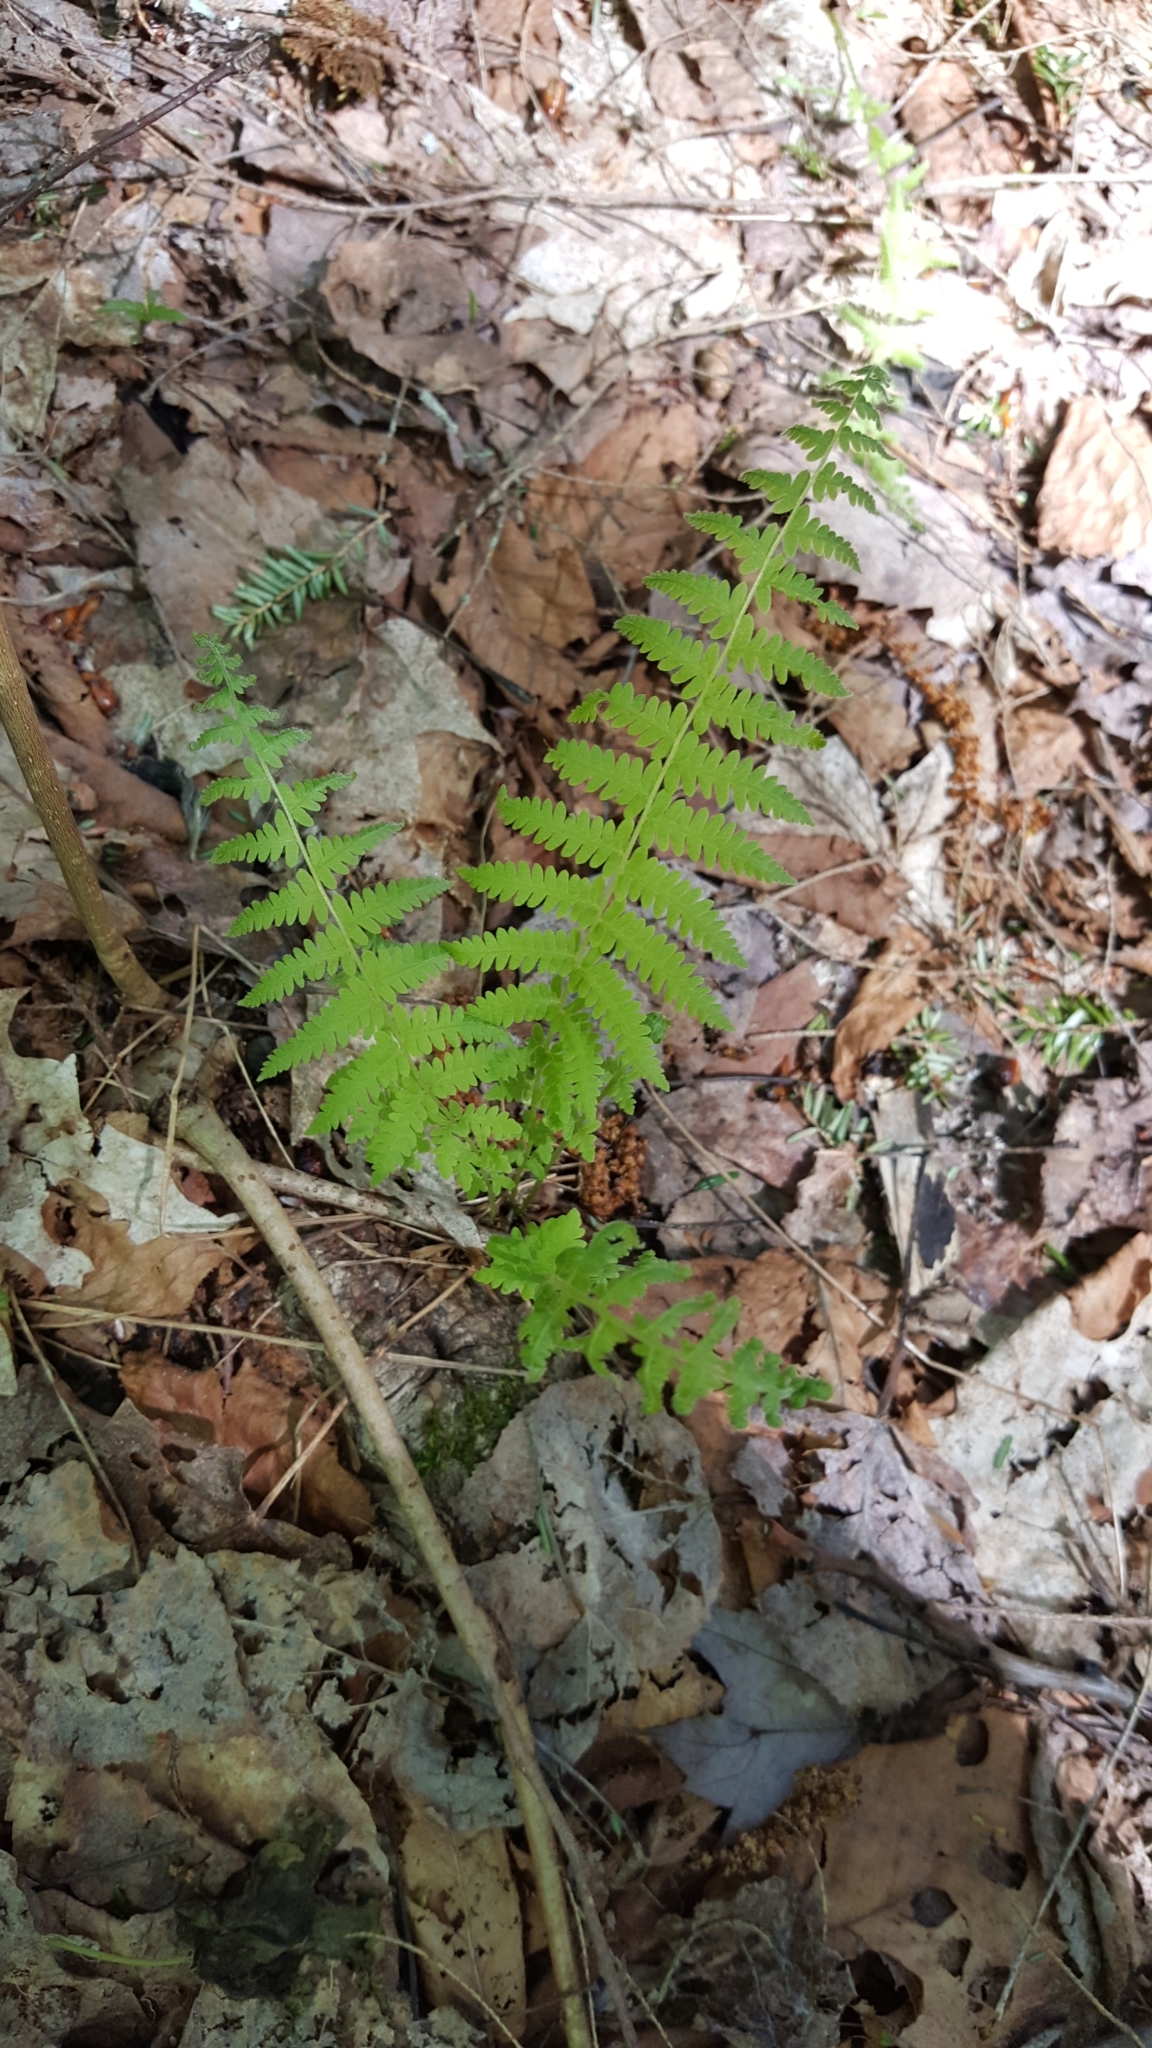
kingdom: Plantae
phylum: Tracheophyta
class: Polypodiopsida
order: Polypodiales
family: Thelypteridaceae
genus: Amauropelta
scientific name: Amauropelta noveboracensis
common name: New york fern
